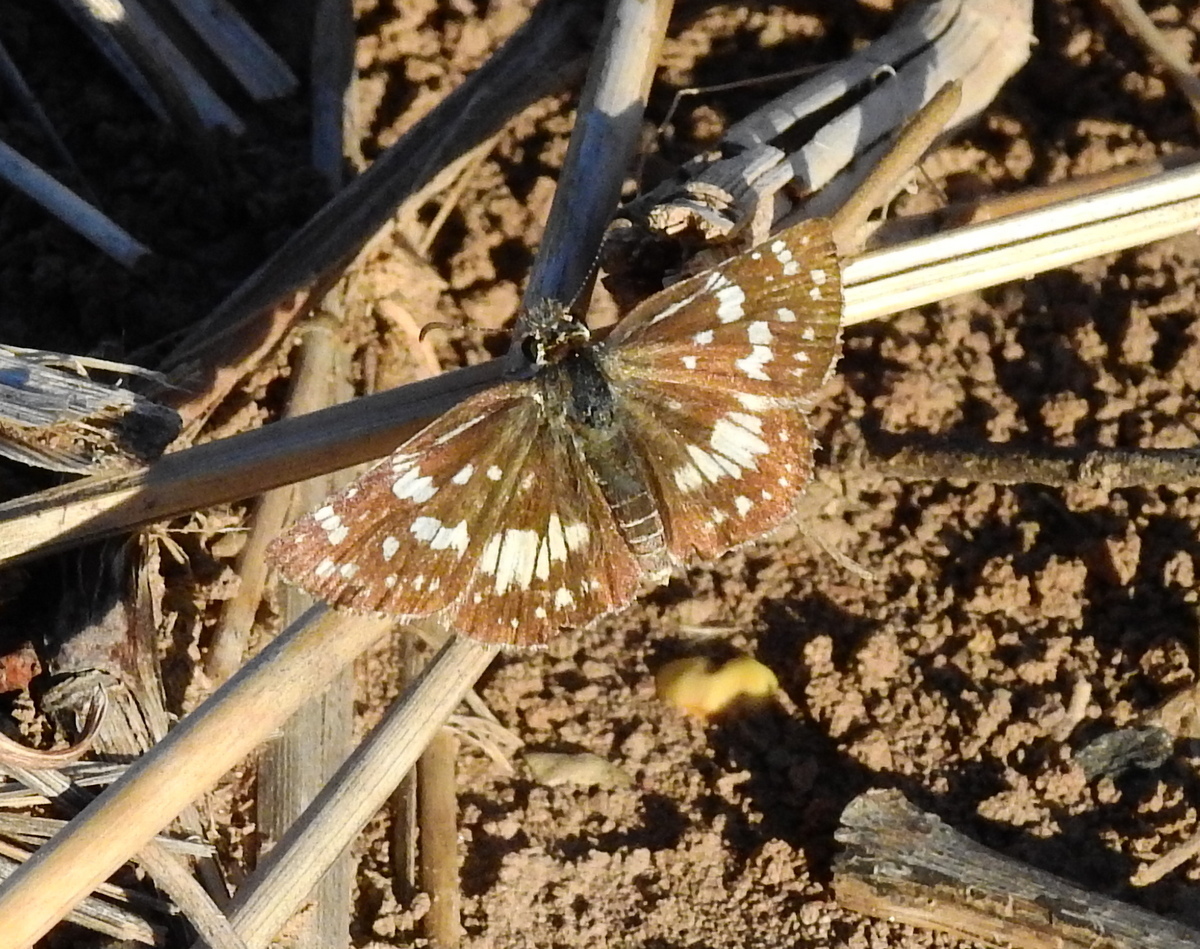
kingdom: Animalia
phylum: Arthropoda
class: Insecta
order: Lepidoptera
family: Hesperiidae
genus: Burnsius
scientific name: Burnsius orcynoides
